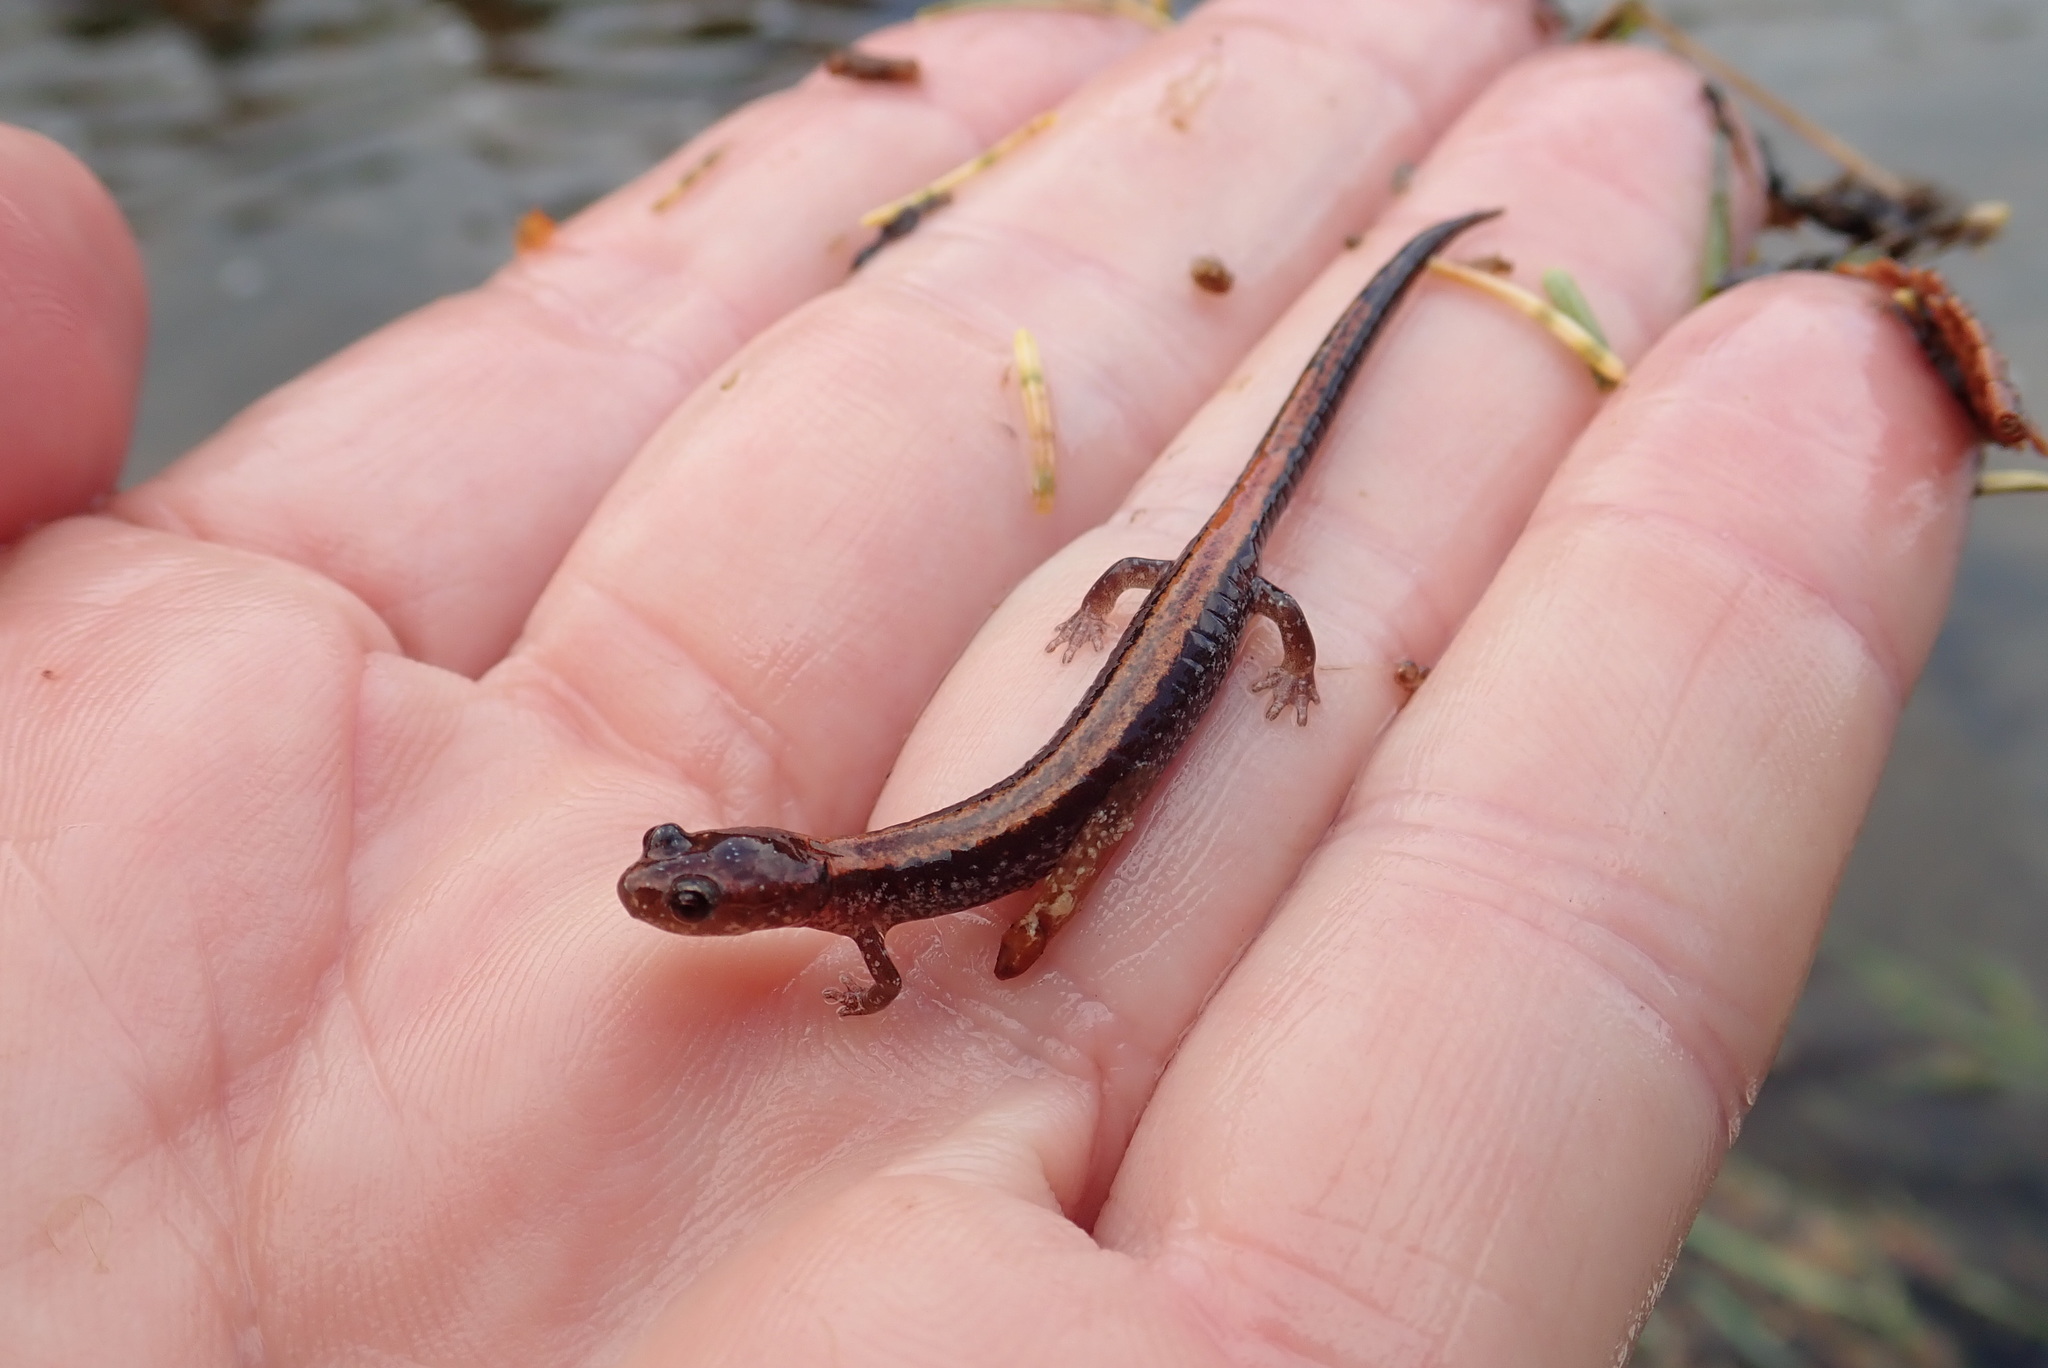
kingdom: Animalia
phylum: Chordata
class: Amphibia
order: Caudata
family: Plethodontidae
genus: Plethodon
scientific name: Plethodon cinereus
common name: Redback salamander
